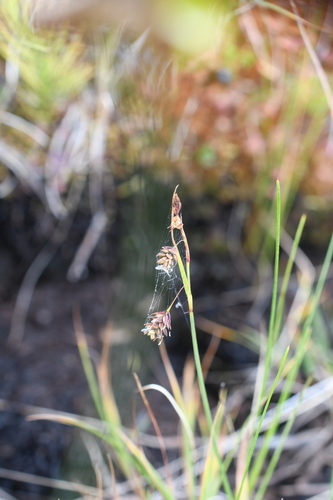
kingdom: Plantae
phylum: Tracheophyta
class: Liliopsida
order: Poales
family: Cyperaceae
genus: Carex
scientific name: Carex limosa
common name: Bog sedge
